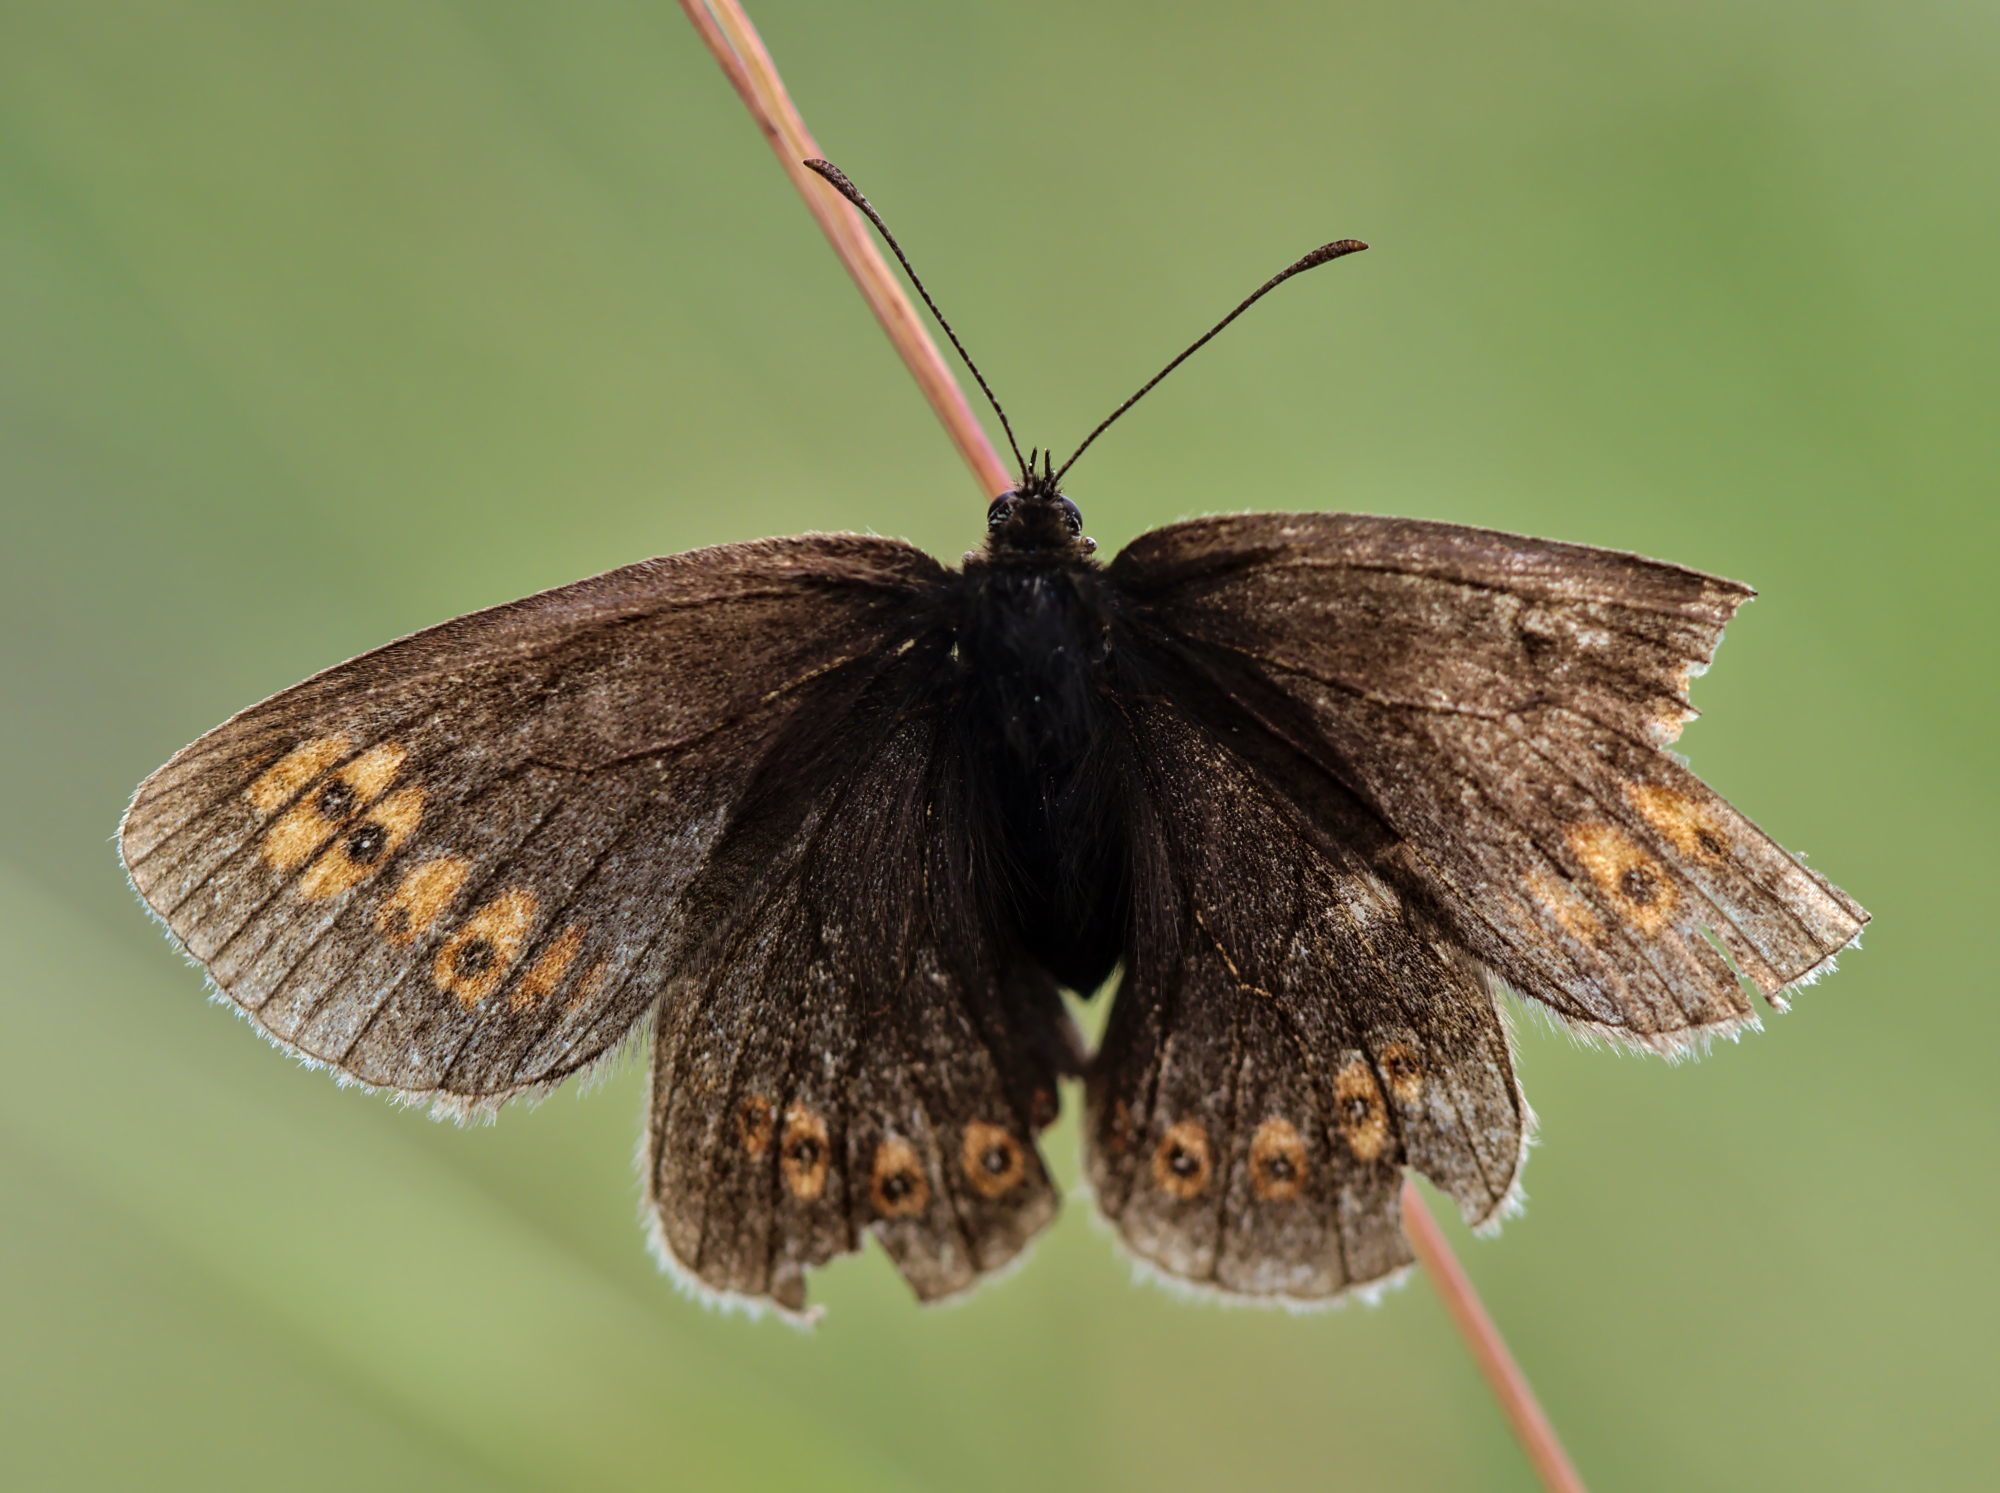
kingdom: Animalia
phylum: Arthropoda
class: Insecta
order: Lepidoptera
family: Nymphalidae
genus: Erebia
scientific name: Erebia alberganus
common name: Almond-eyed ringlet
